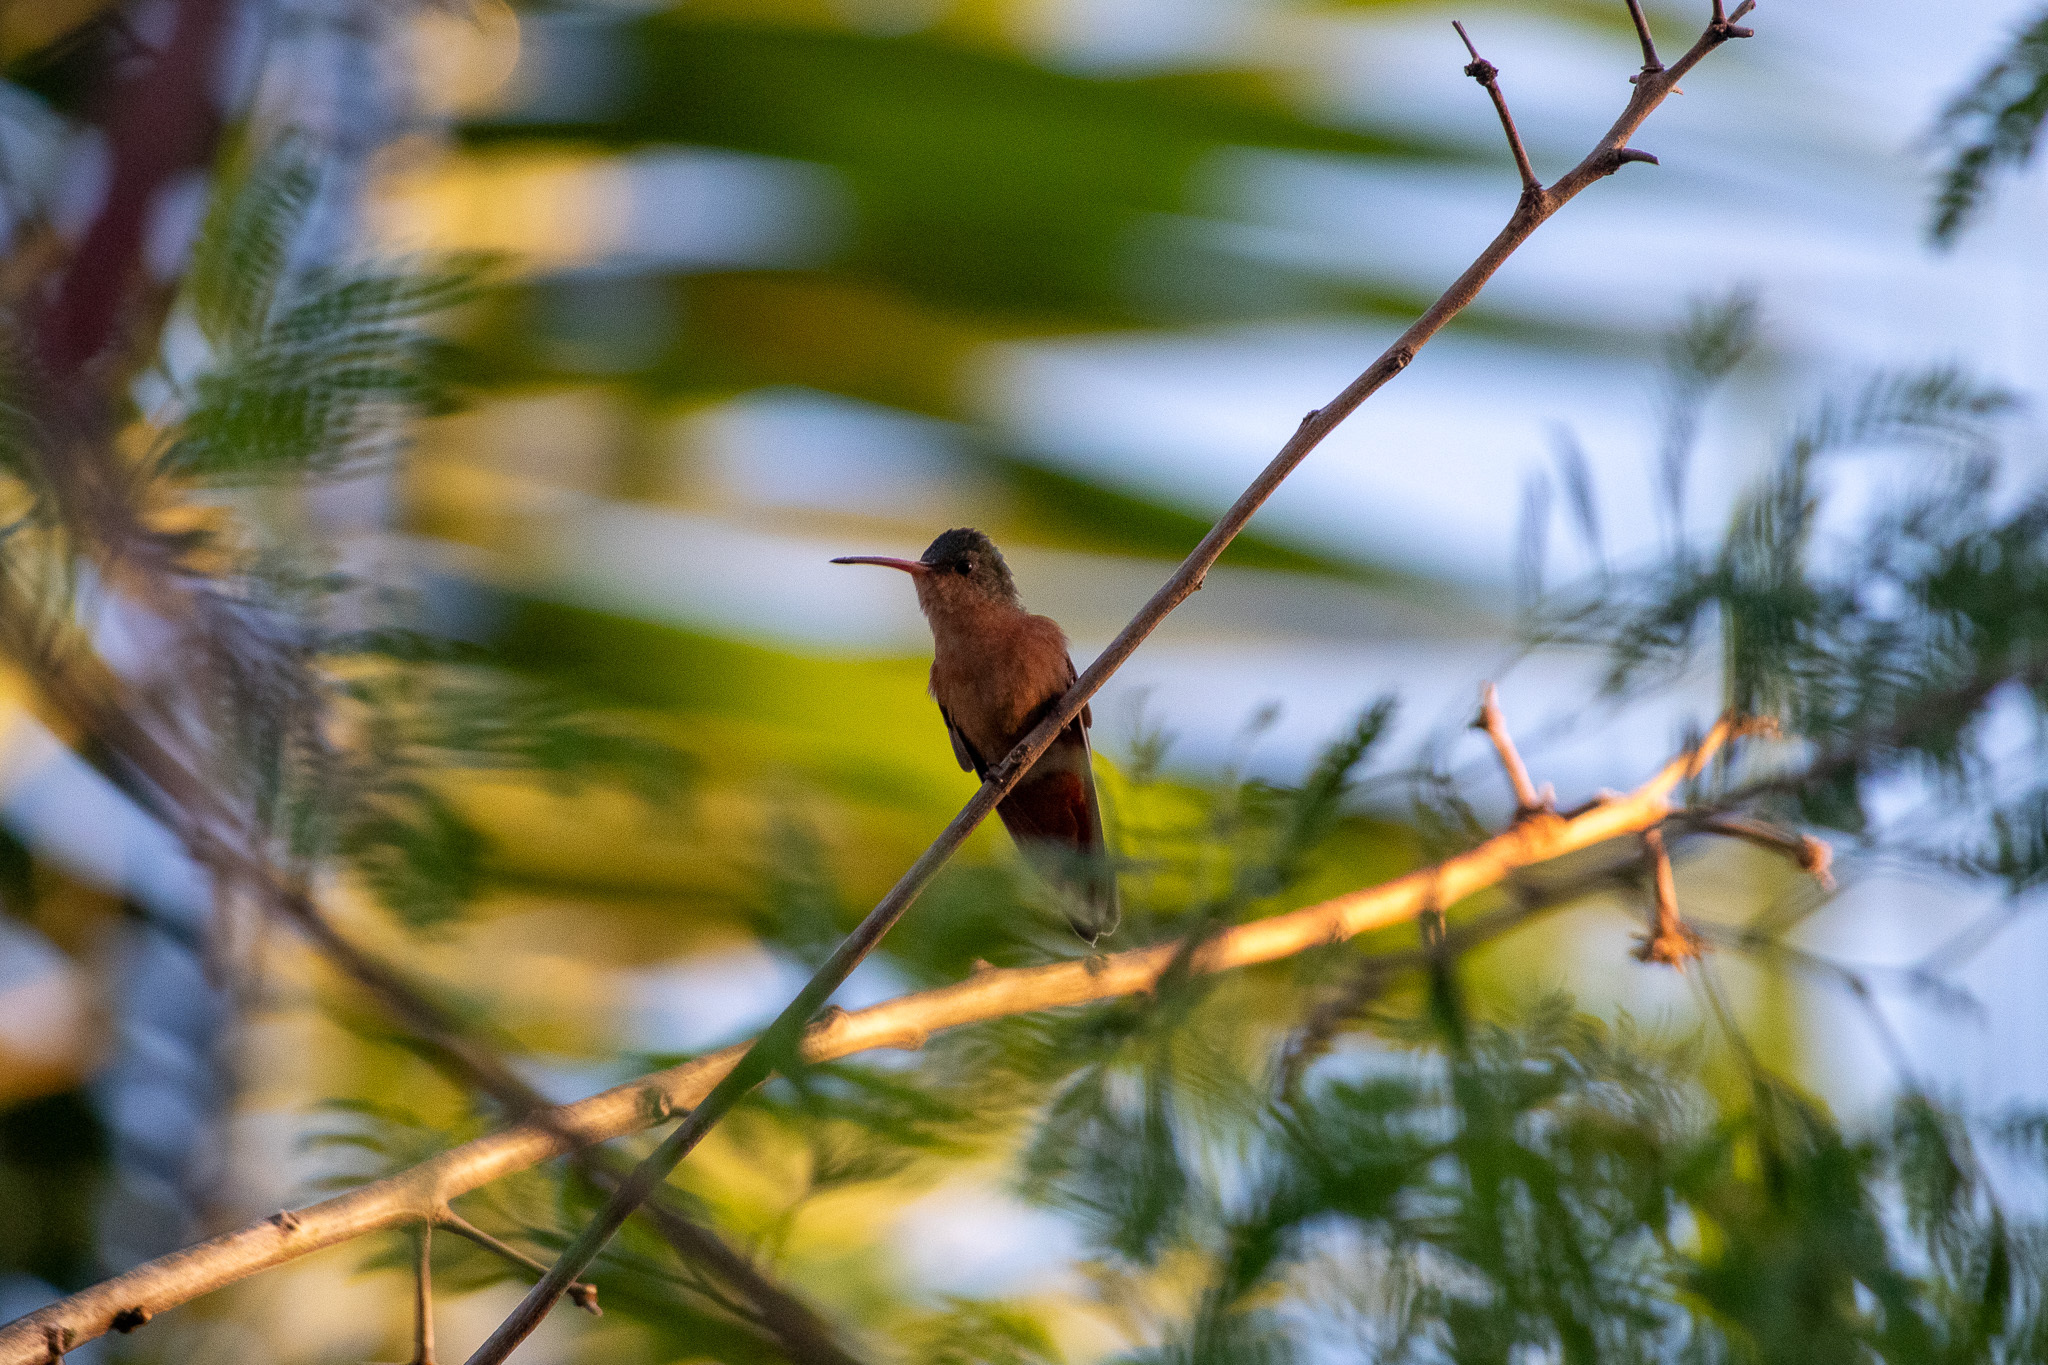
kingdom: Animalia
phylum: Chordata
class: Aves
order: Apodiformes
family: Trochilidae
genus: Amazilia
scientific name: Amazilia rutila
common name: Cinnamon hummingbird
